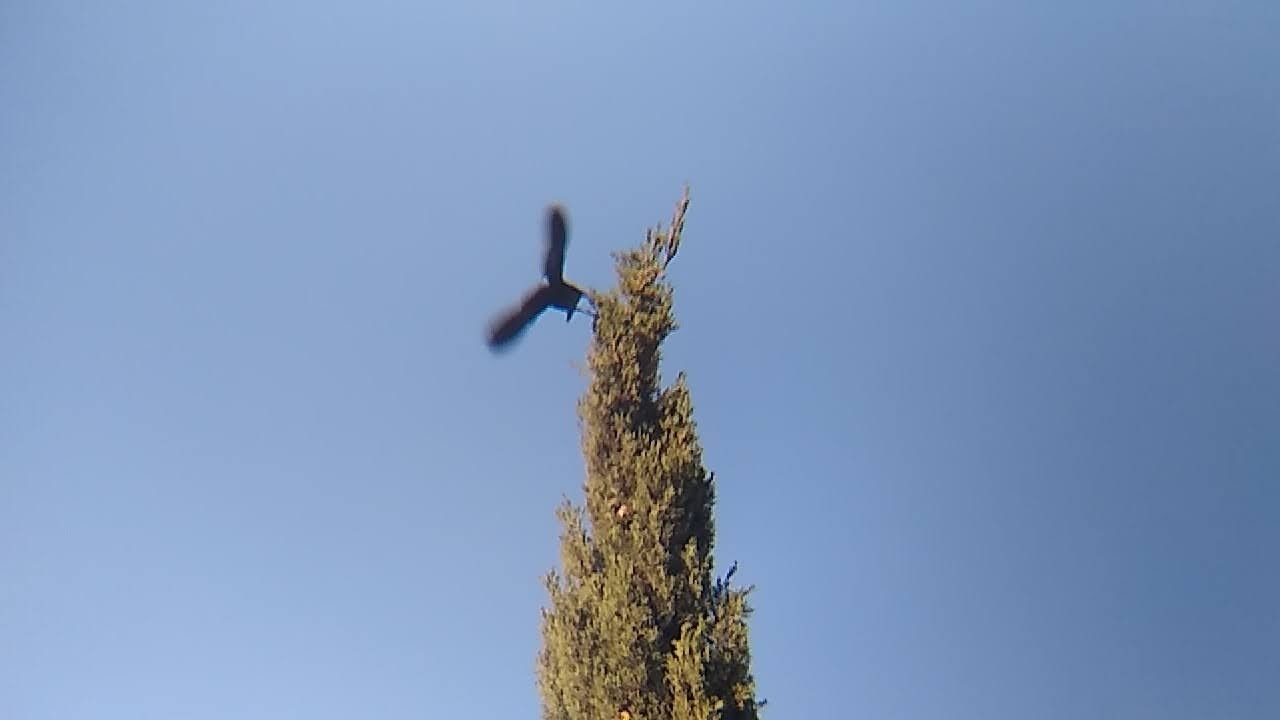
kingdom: Animalia
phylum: Chordata
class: Aves
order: Passeriformes
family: Icteridae
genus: Molothrus
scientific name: Molothrus aeneus
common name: Bronzed cowbird
